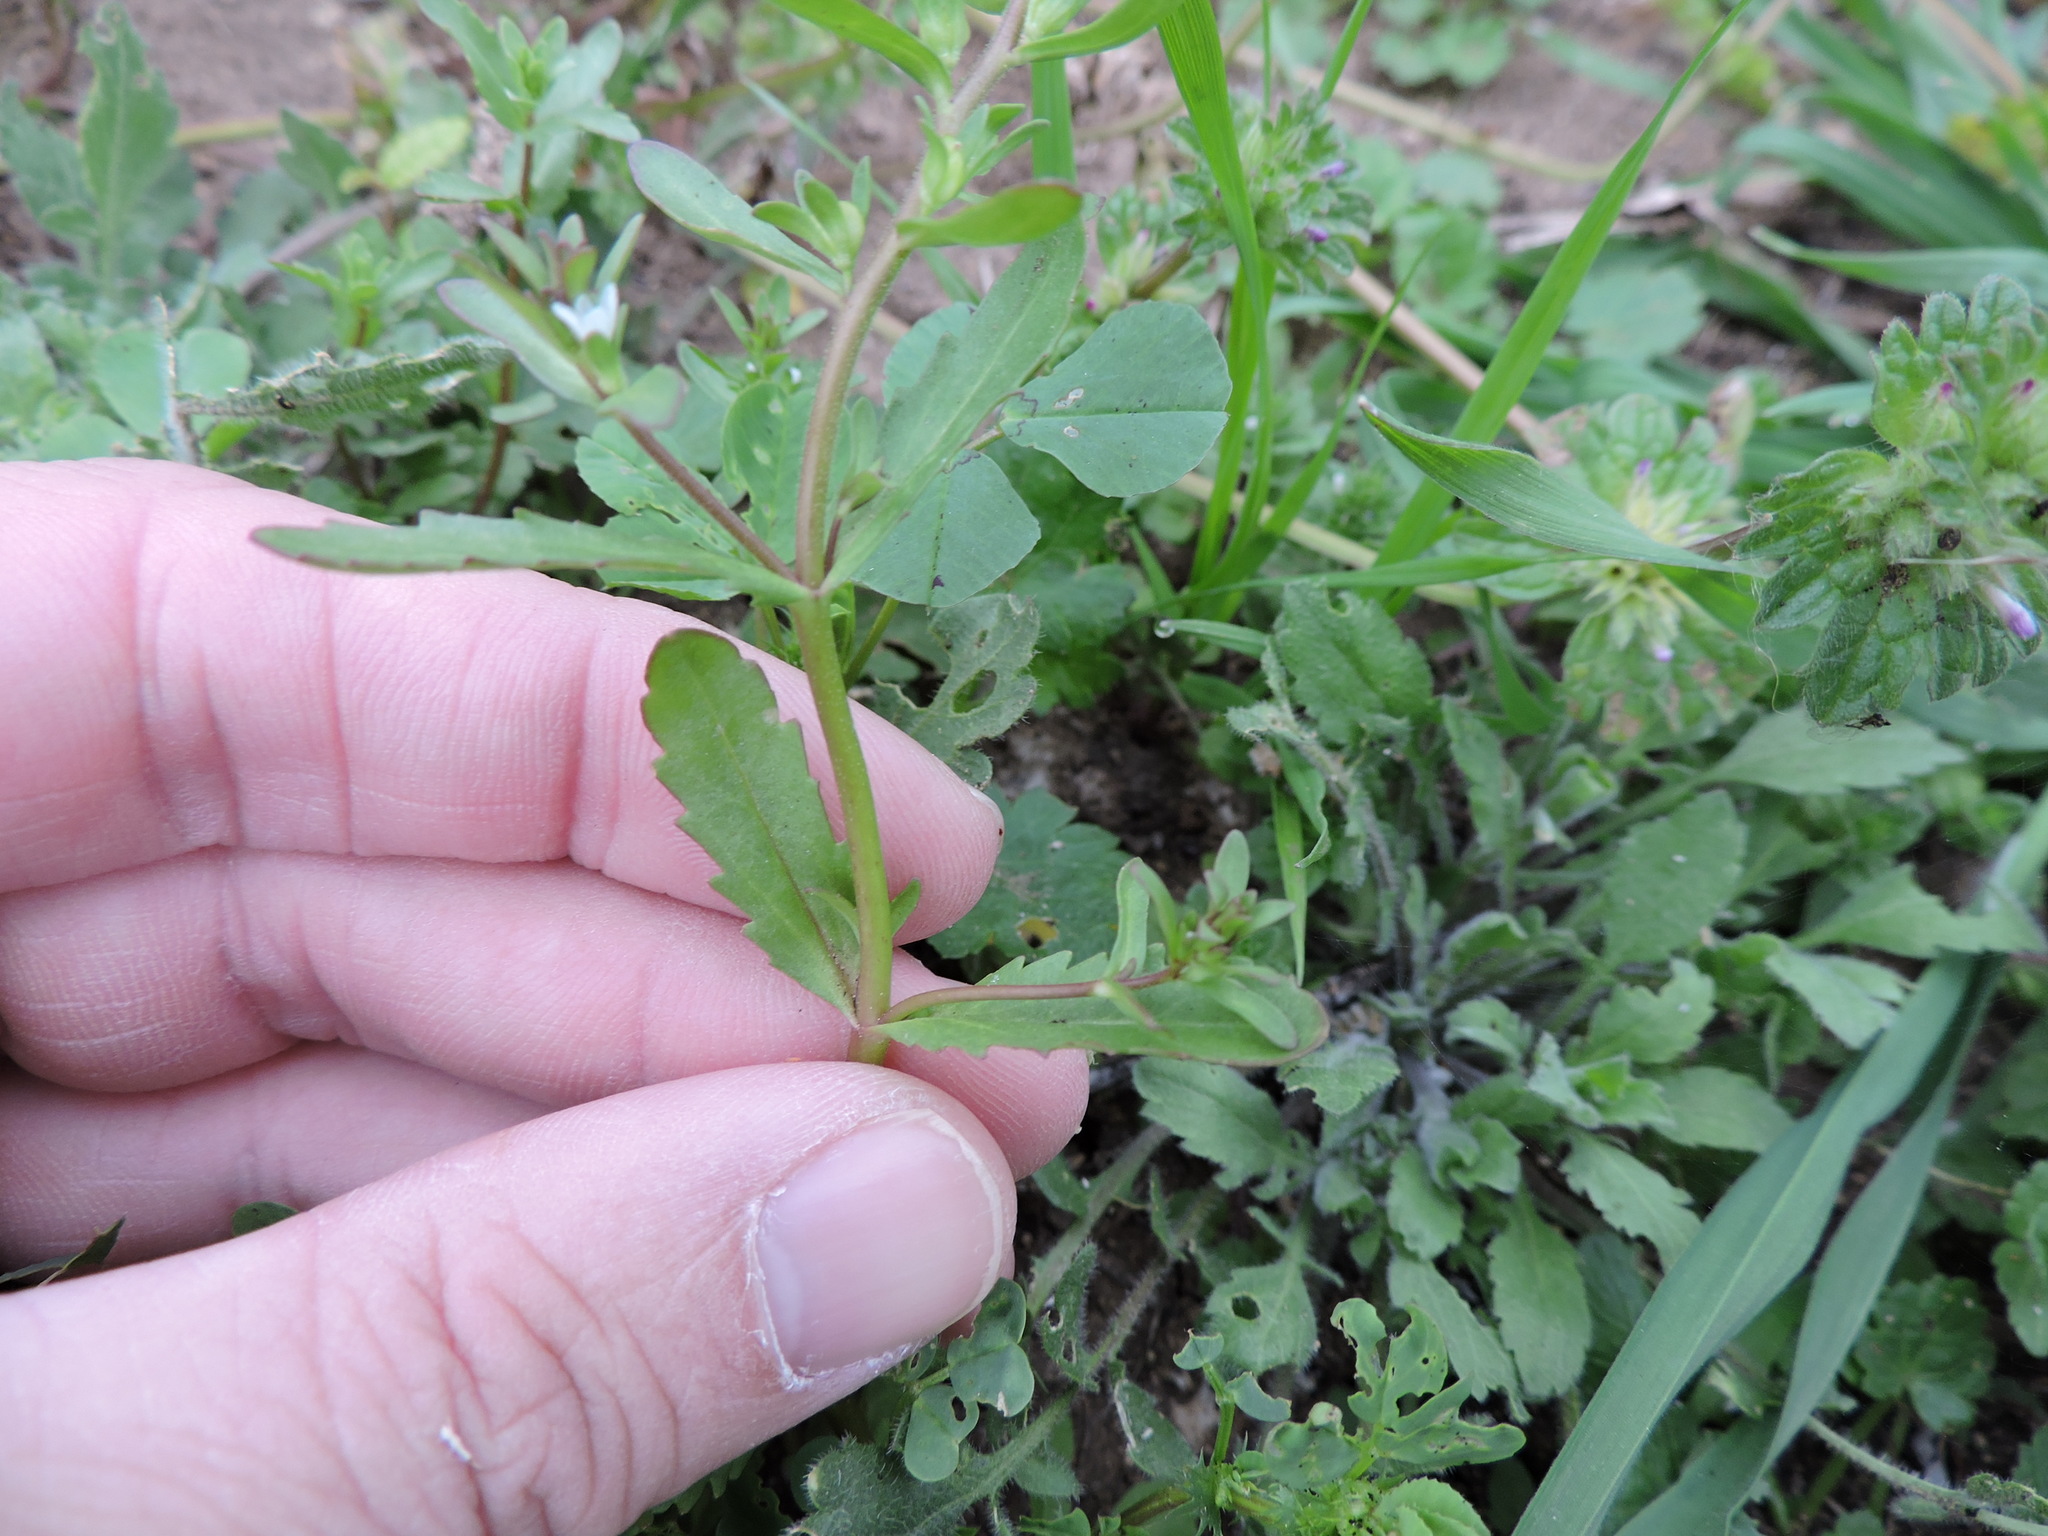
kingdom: Plantae
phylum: Tracheophyta
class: Magnoliopsida
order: Lamiales
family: Plantaginaceae
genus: Veronica
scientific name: Veronica peregrina
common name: Neckweed
